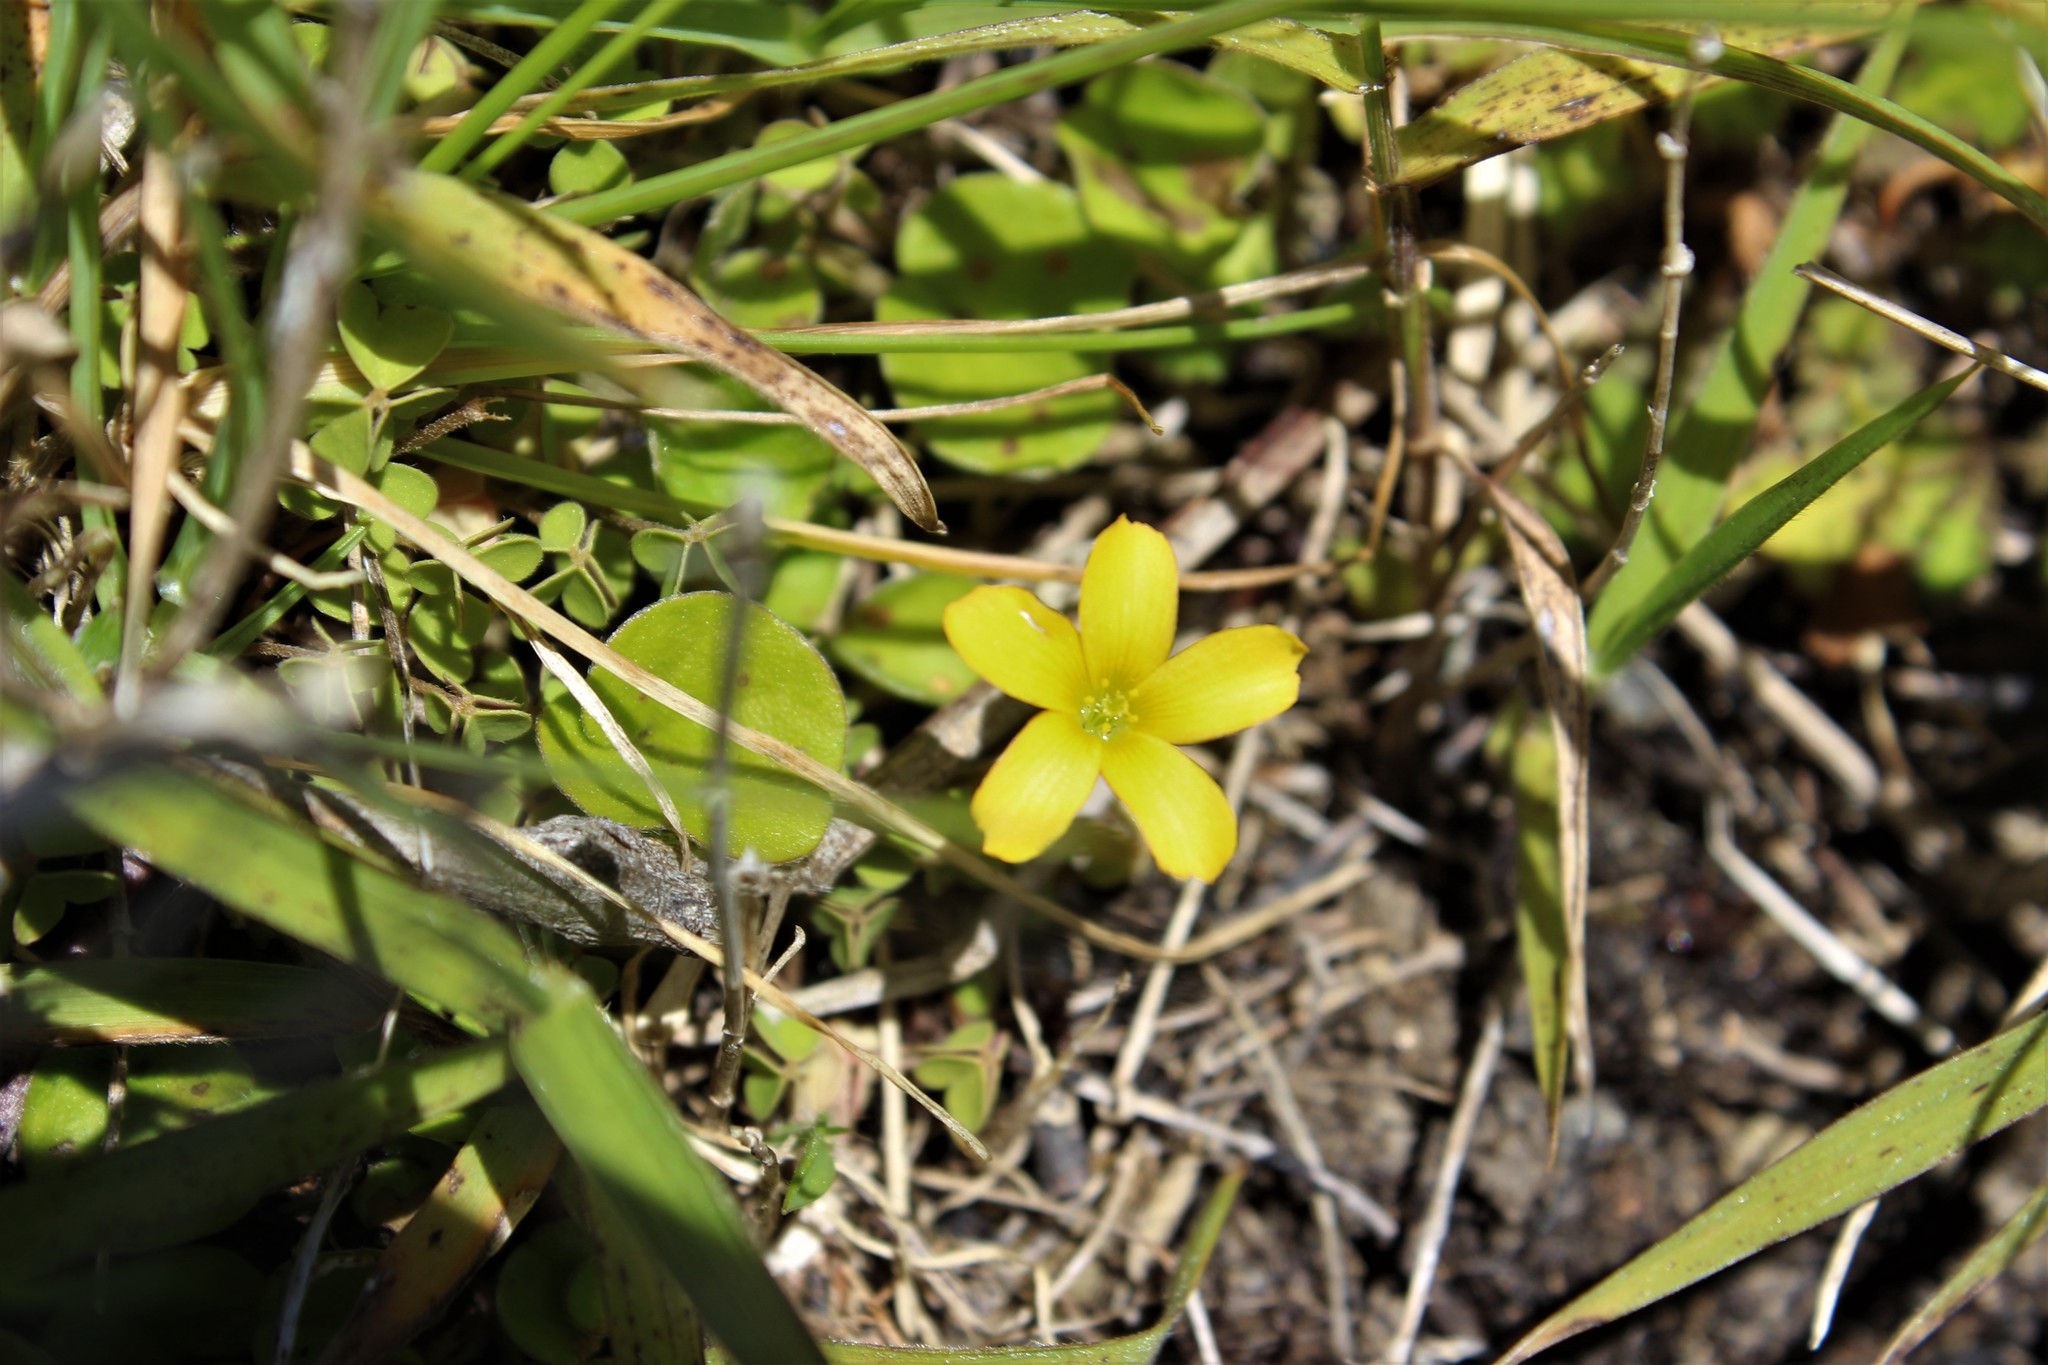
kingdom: Plantae
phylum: Tracheophyta
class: Magnoliopsida
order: Oxalidales
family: Oxalidaceae
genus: Oxalis
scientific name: Oxalis exilis
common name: Least yellow-sorrel
